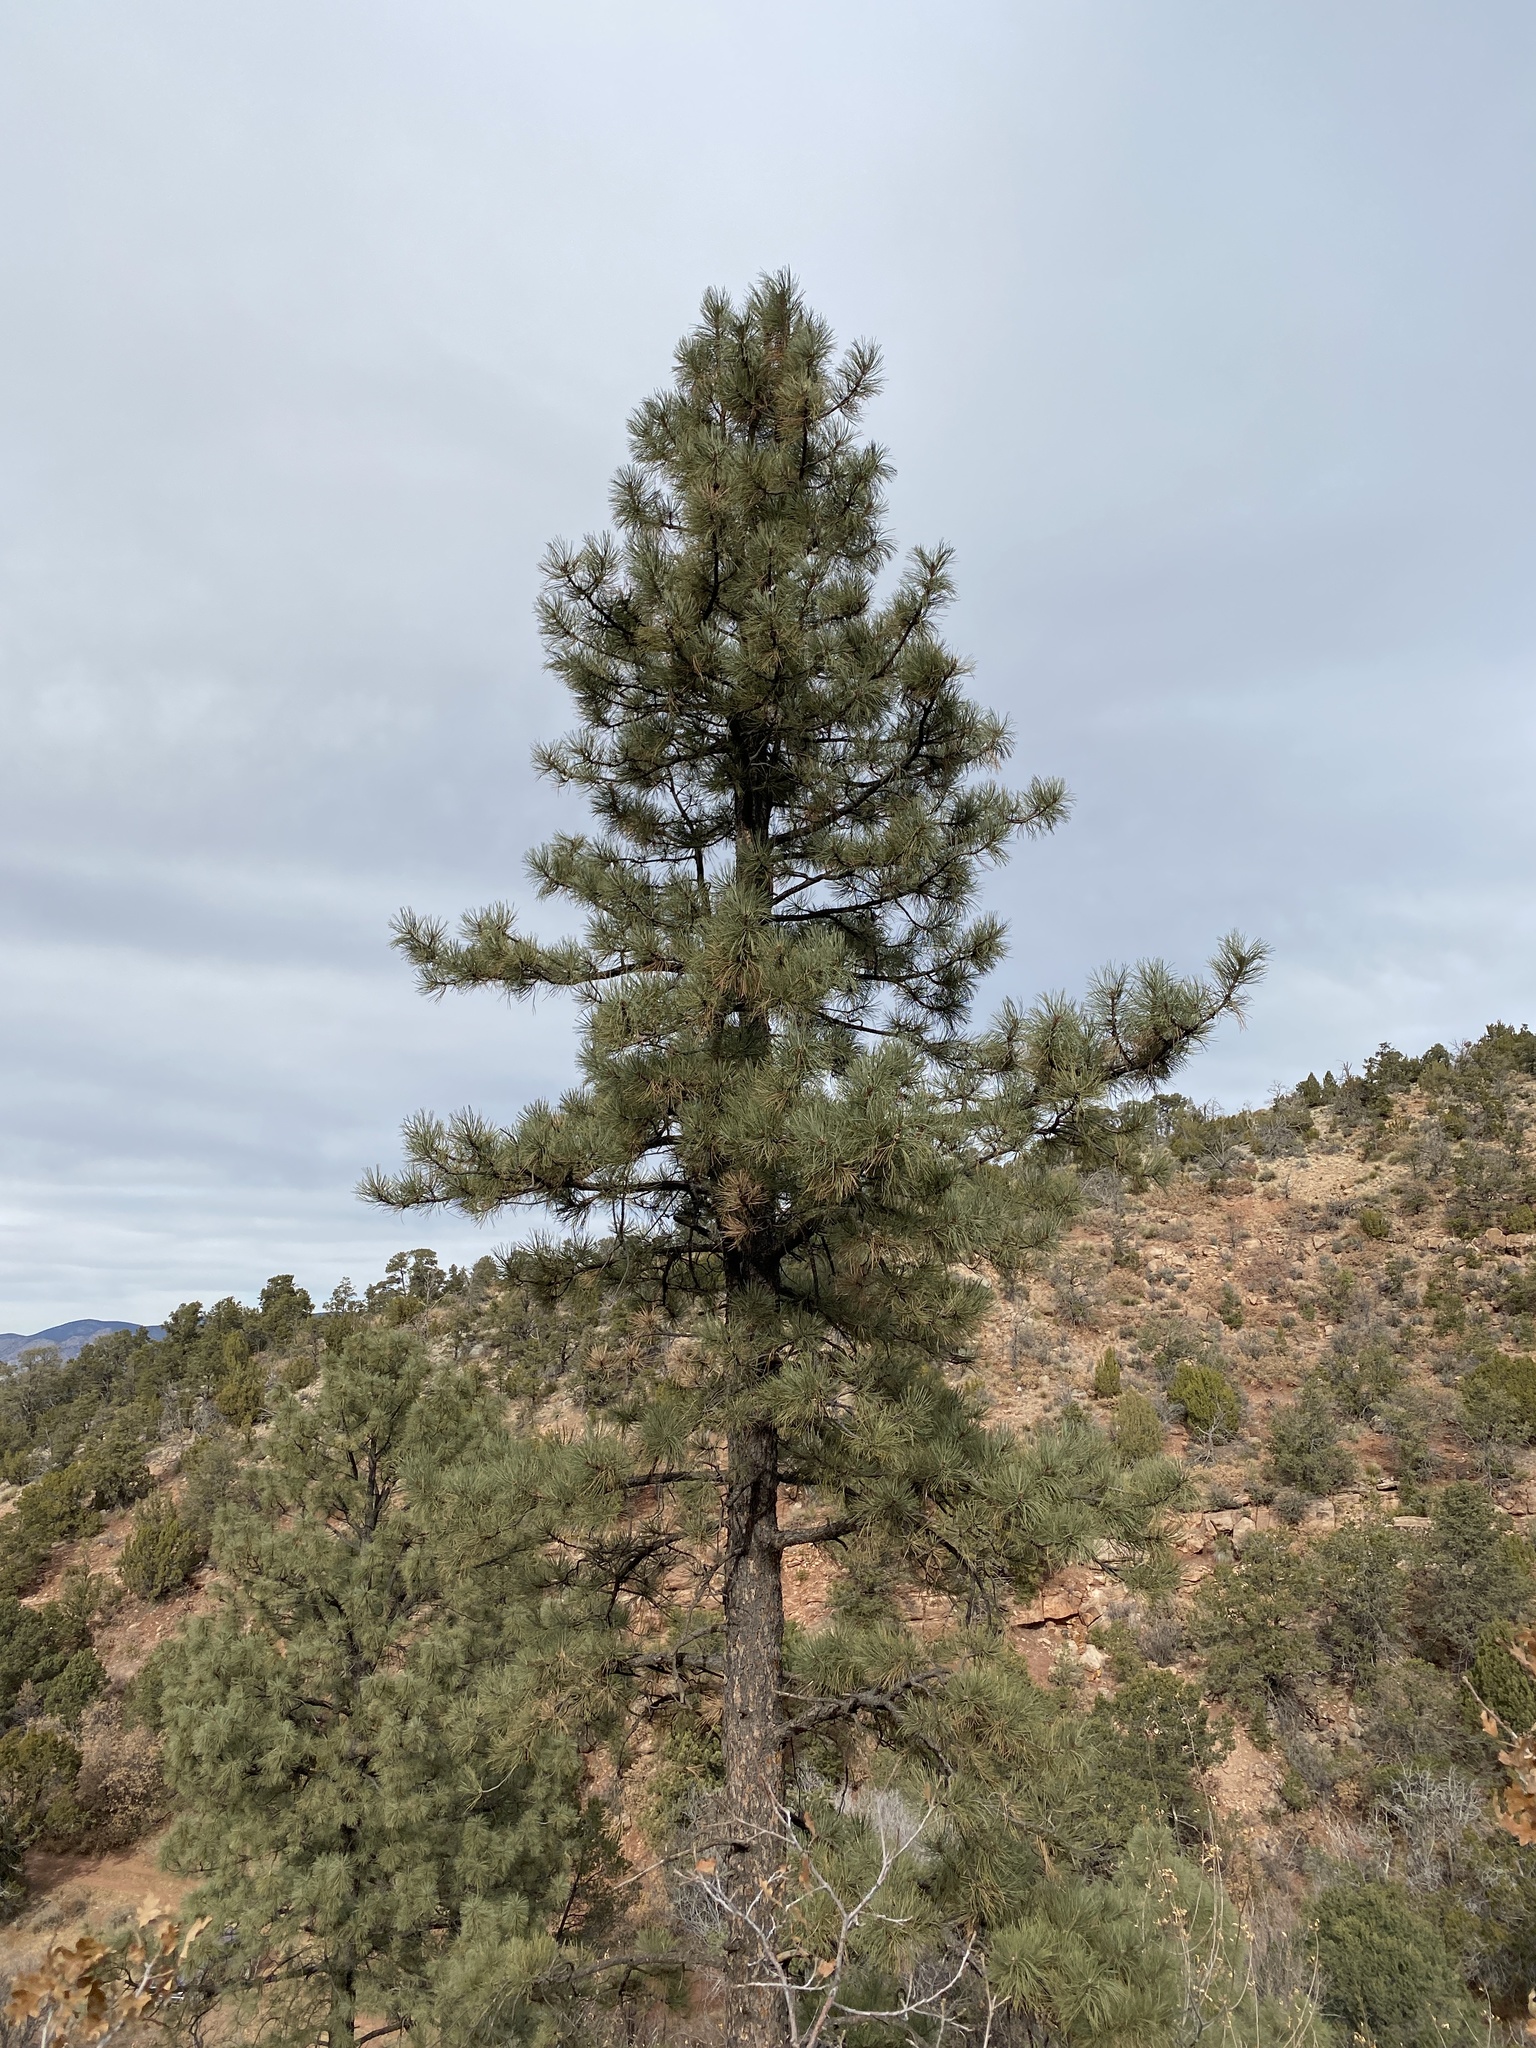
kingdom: Plantae
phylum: Tracheophyta
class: Pinopsida
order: Pinales
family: Pinaceae
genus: Pinus
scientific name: Pinus ponderosa
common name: Western yellow-pine
